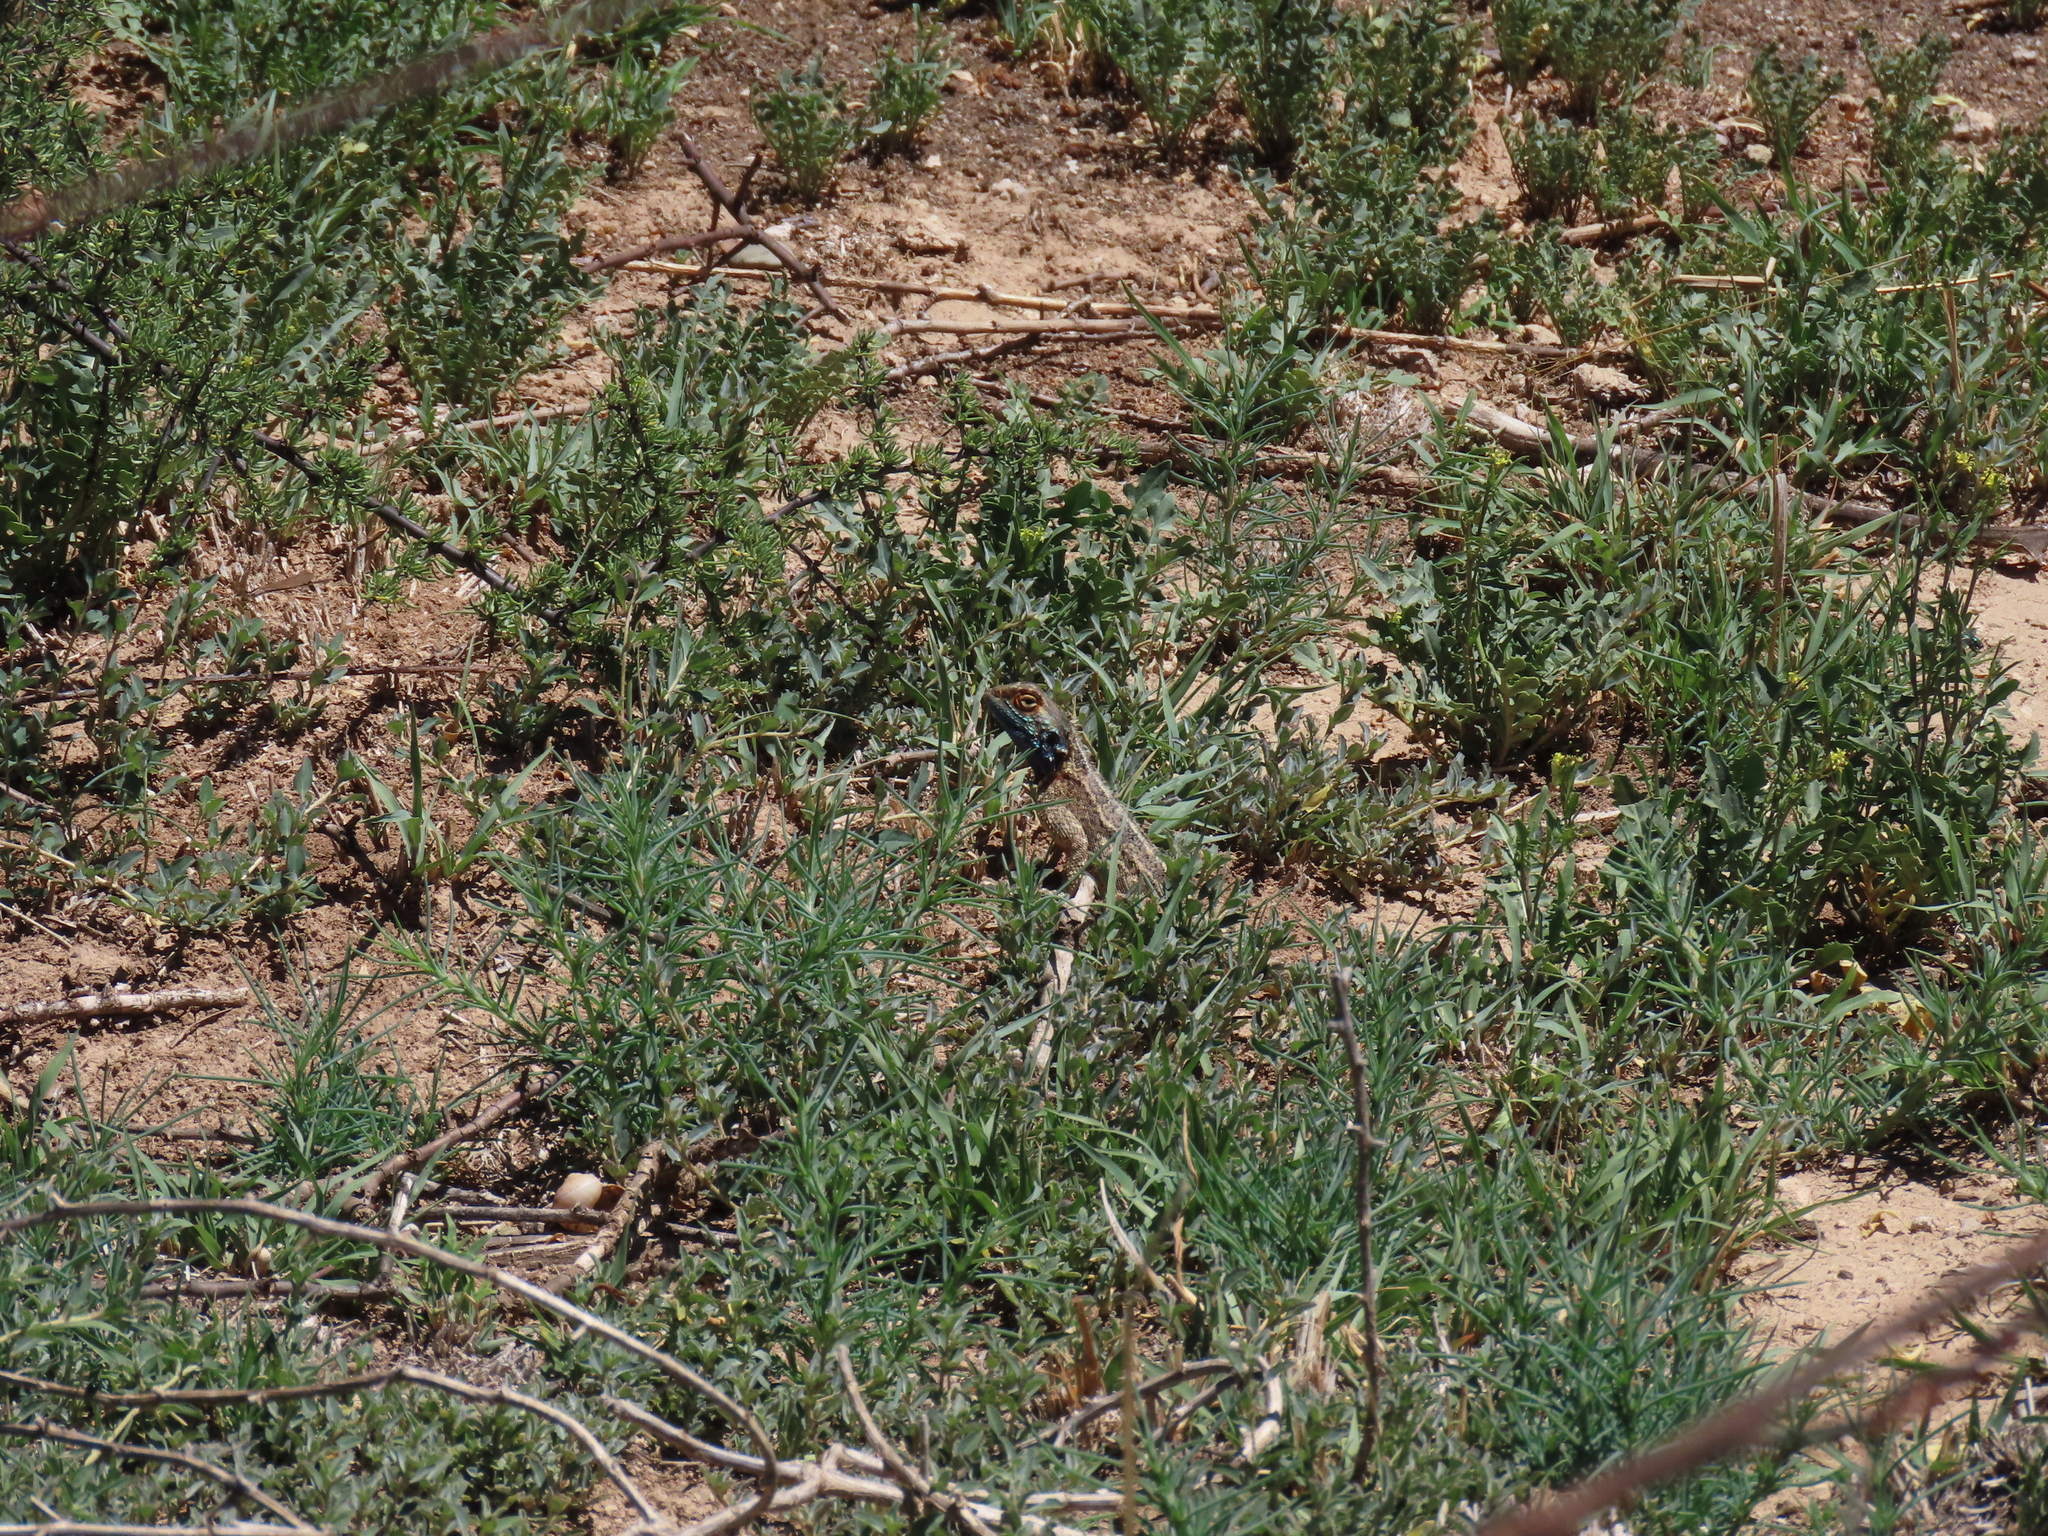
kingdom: Animalia
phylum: Chordata
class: Squamata
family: Agamidae
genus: Agama
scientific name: Agama aculeata
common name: Common ground agama
